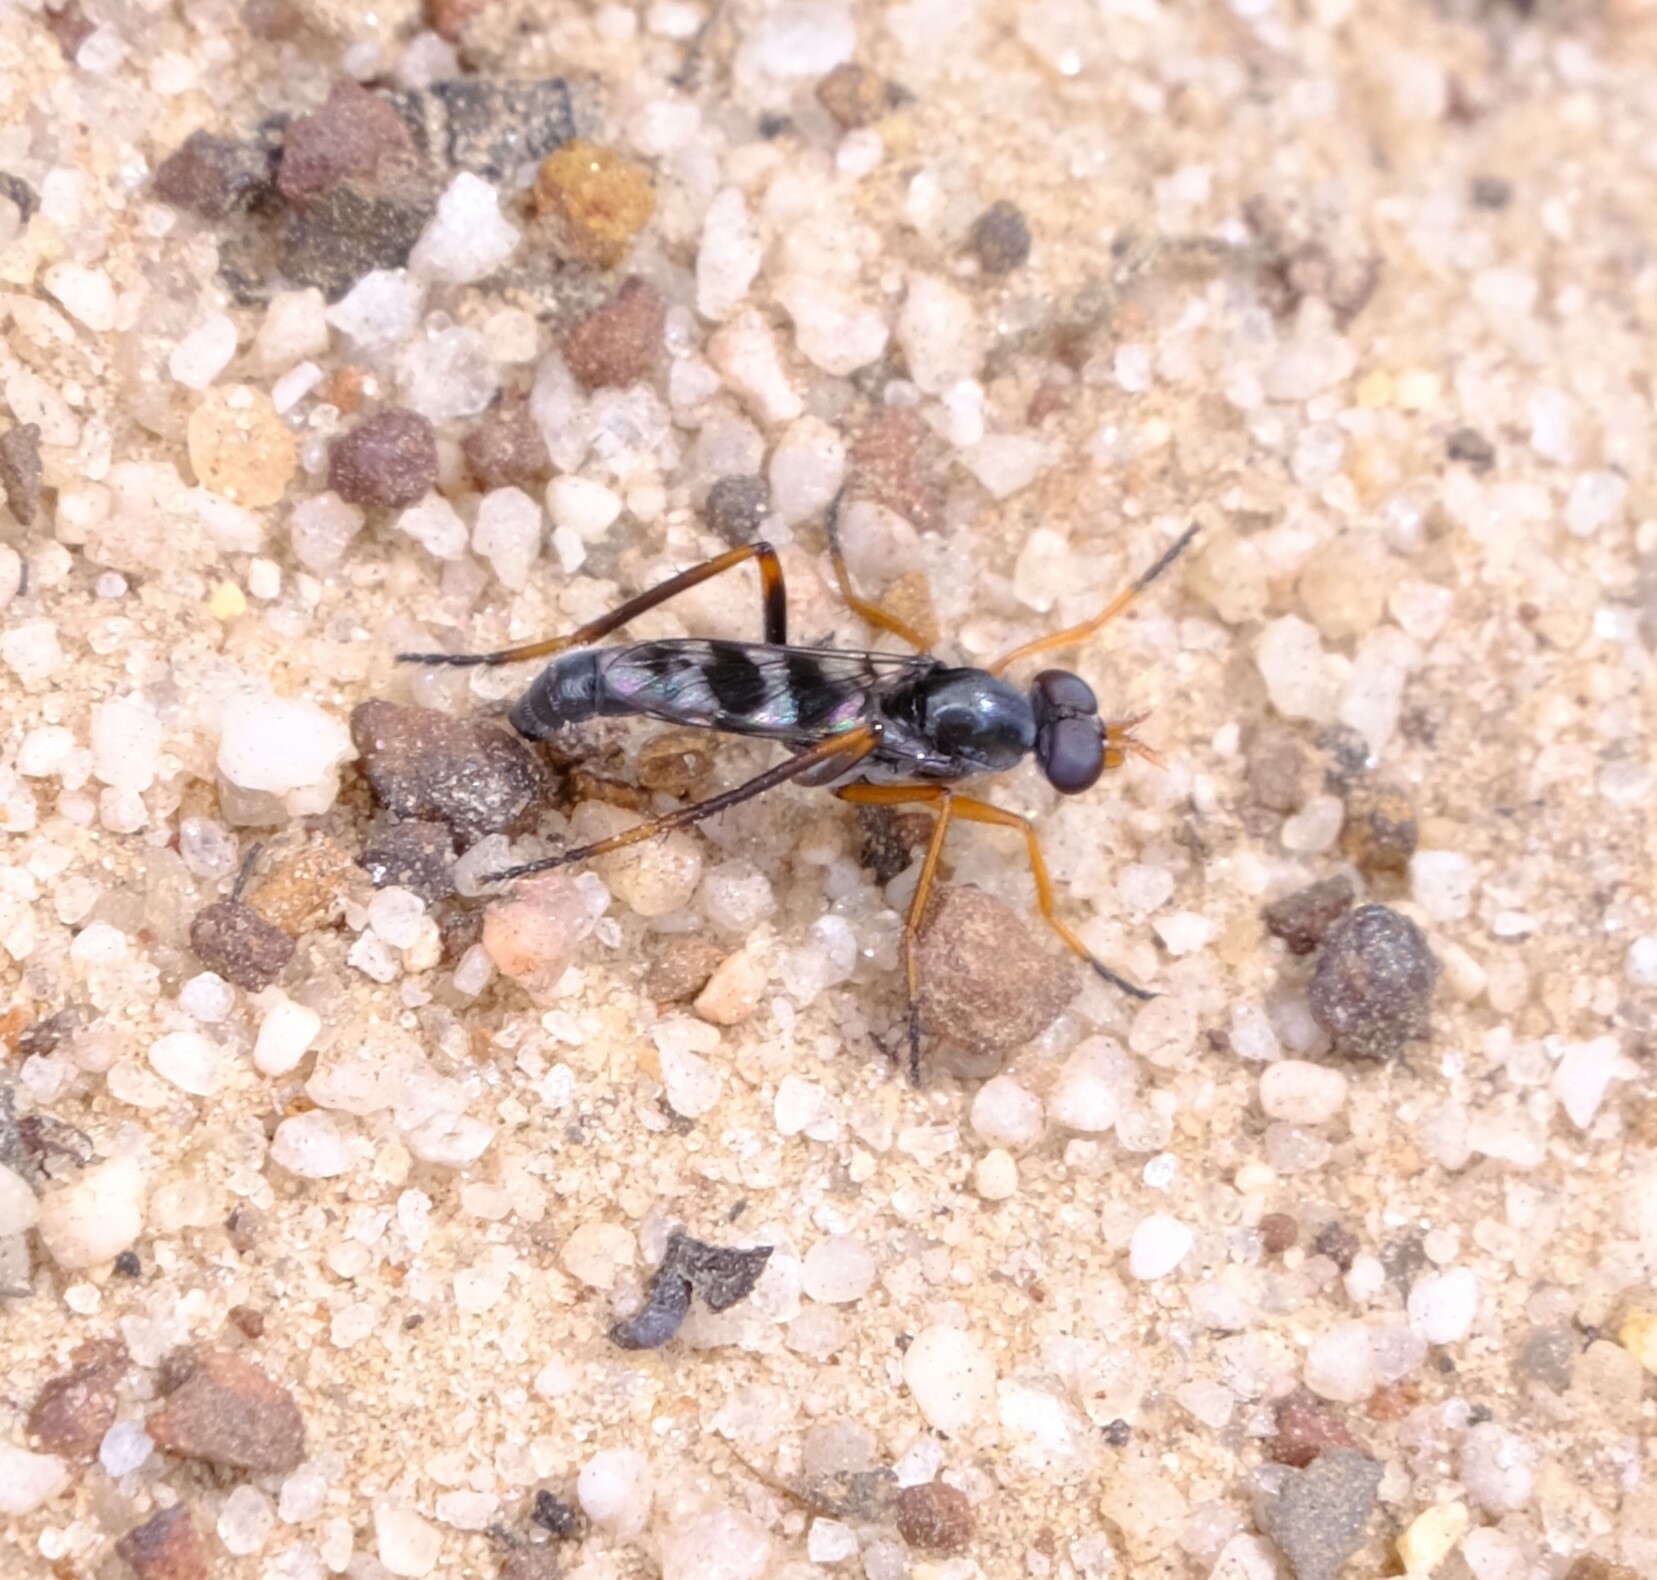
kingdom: Animalia
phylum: Arthropoda
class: Insecta
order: Diptera
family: Therevidae
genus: Acatopygia
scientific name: Acatopygia paradoxa
